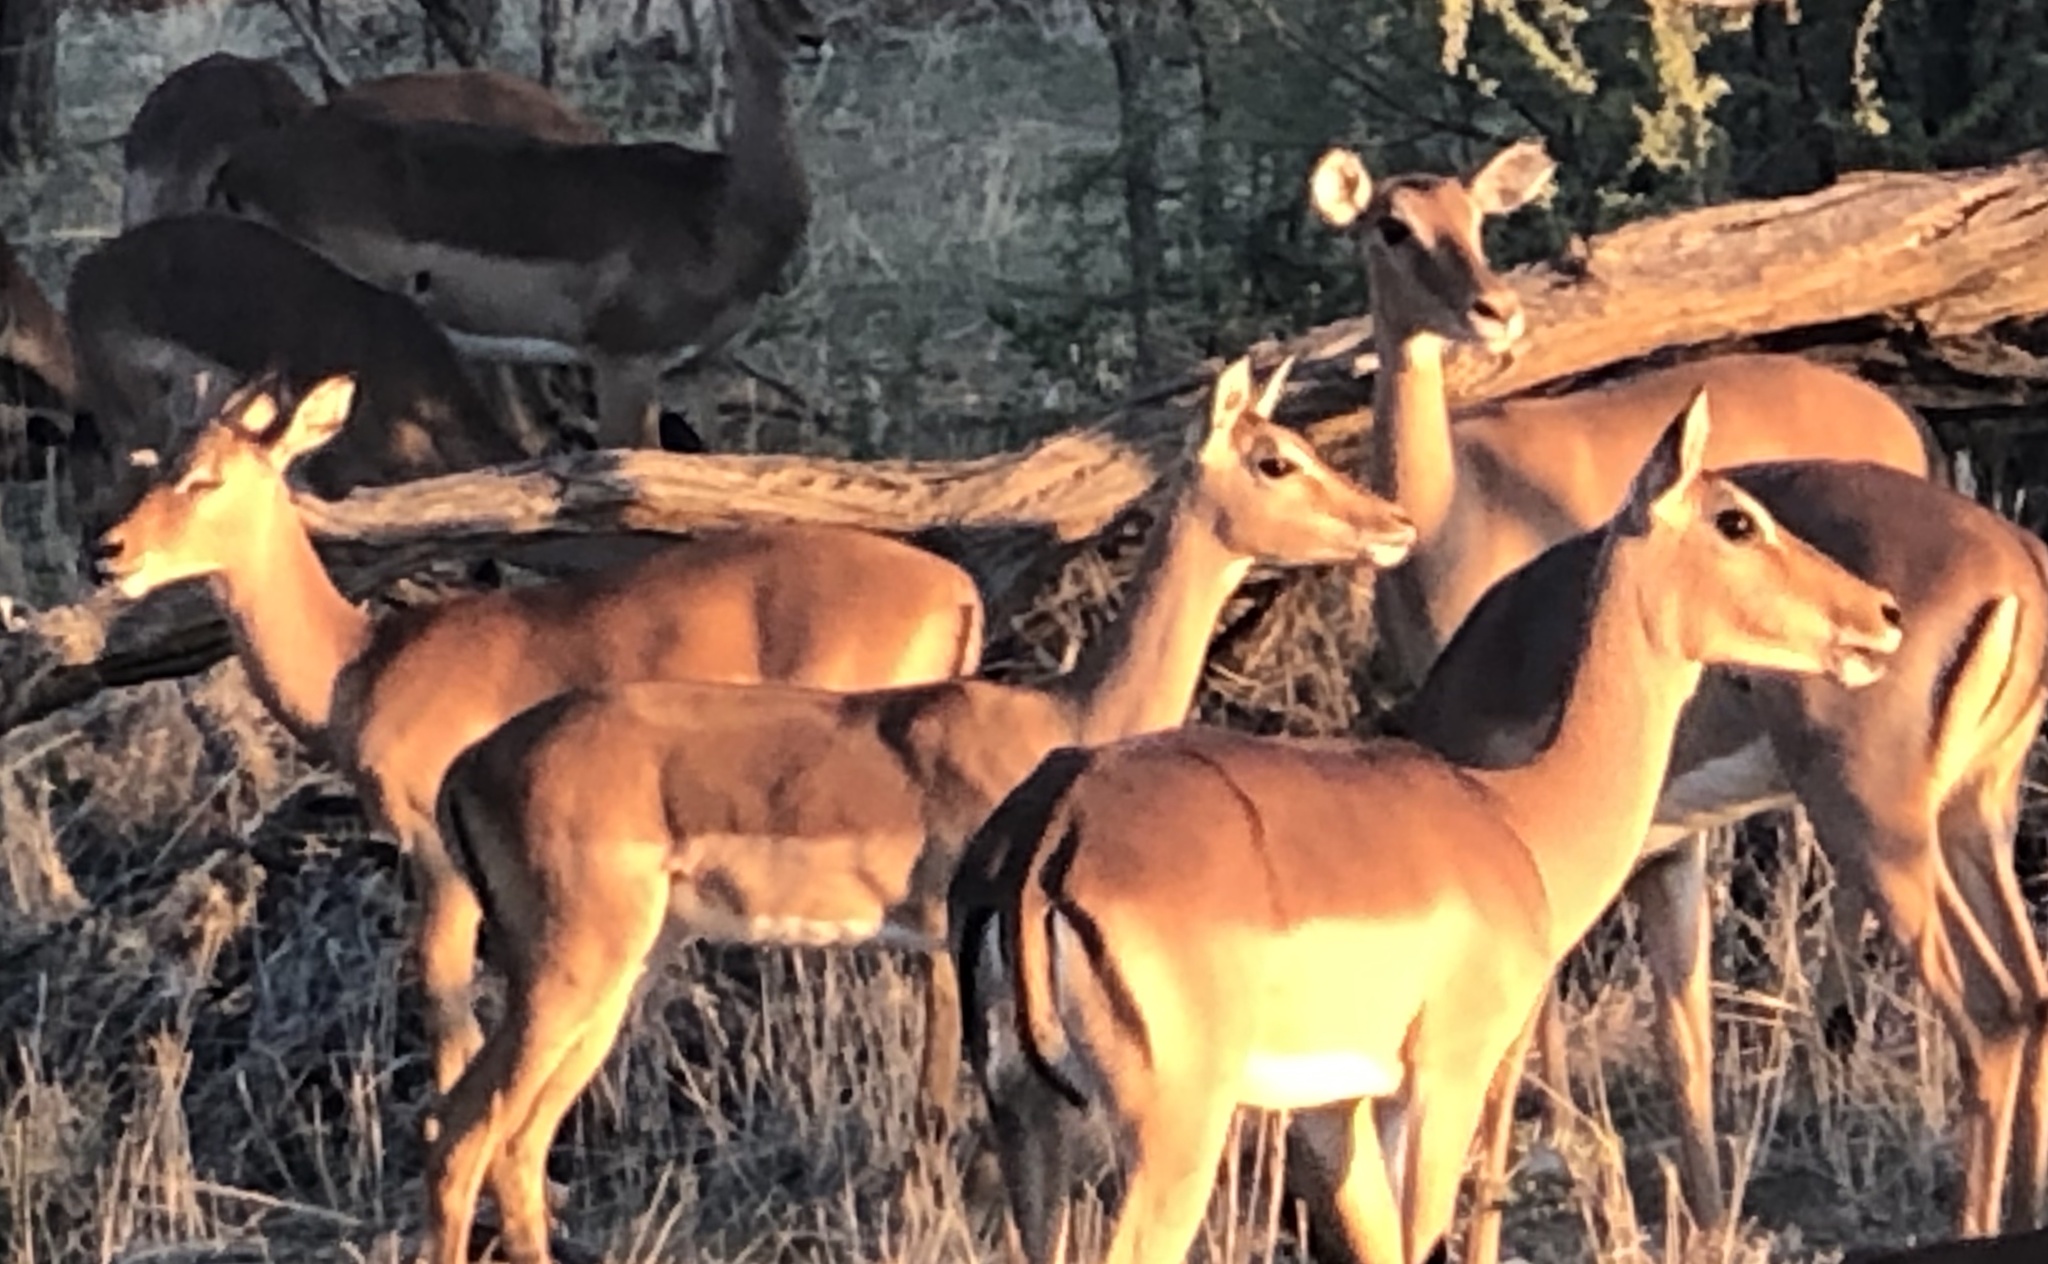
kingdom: Animalia
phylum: Chordata
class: Mammalia
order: Artiodactyla
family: Bovidae
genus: Aepyceros
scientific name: Aepyceros melampus
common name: Impala
